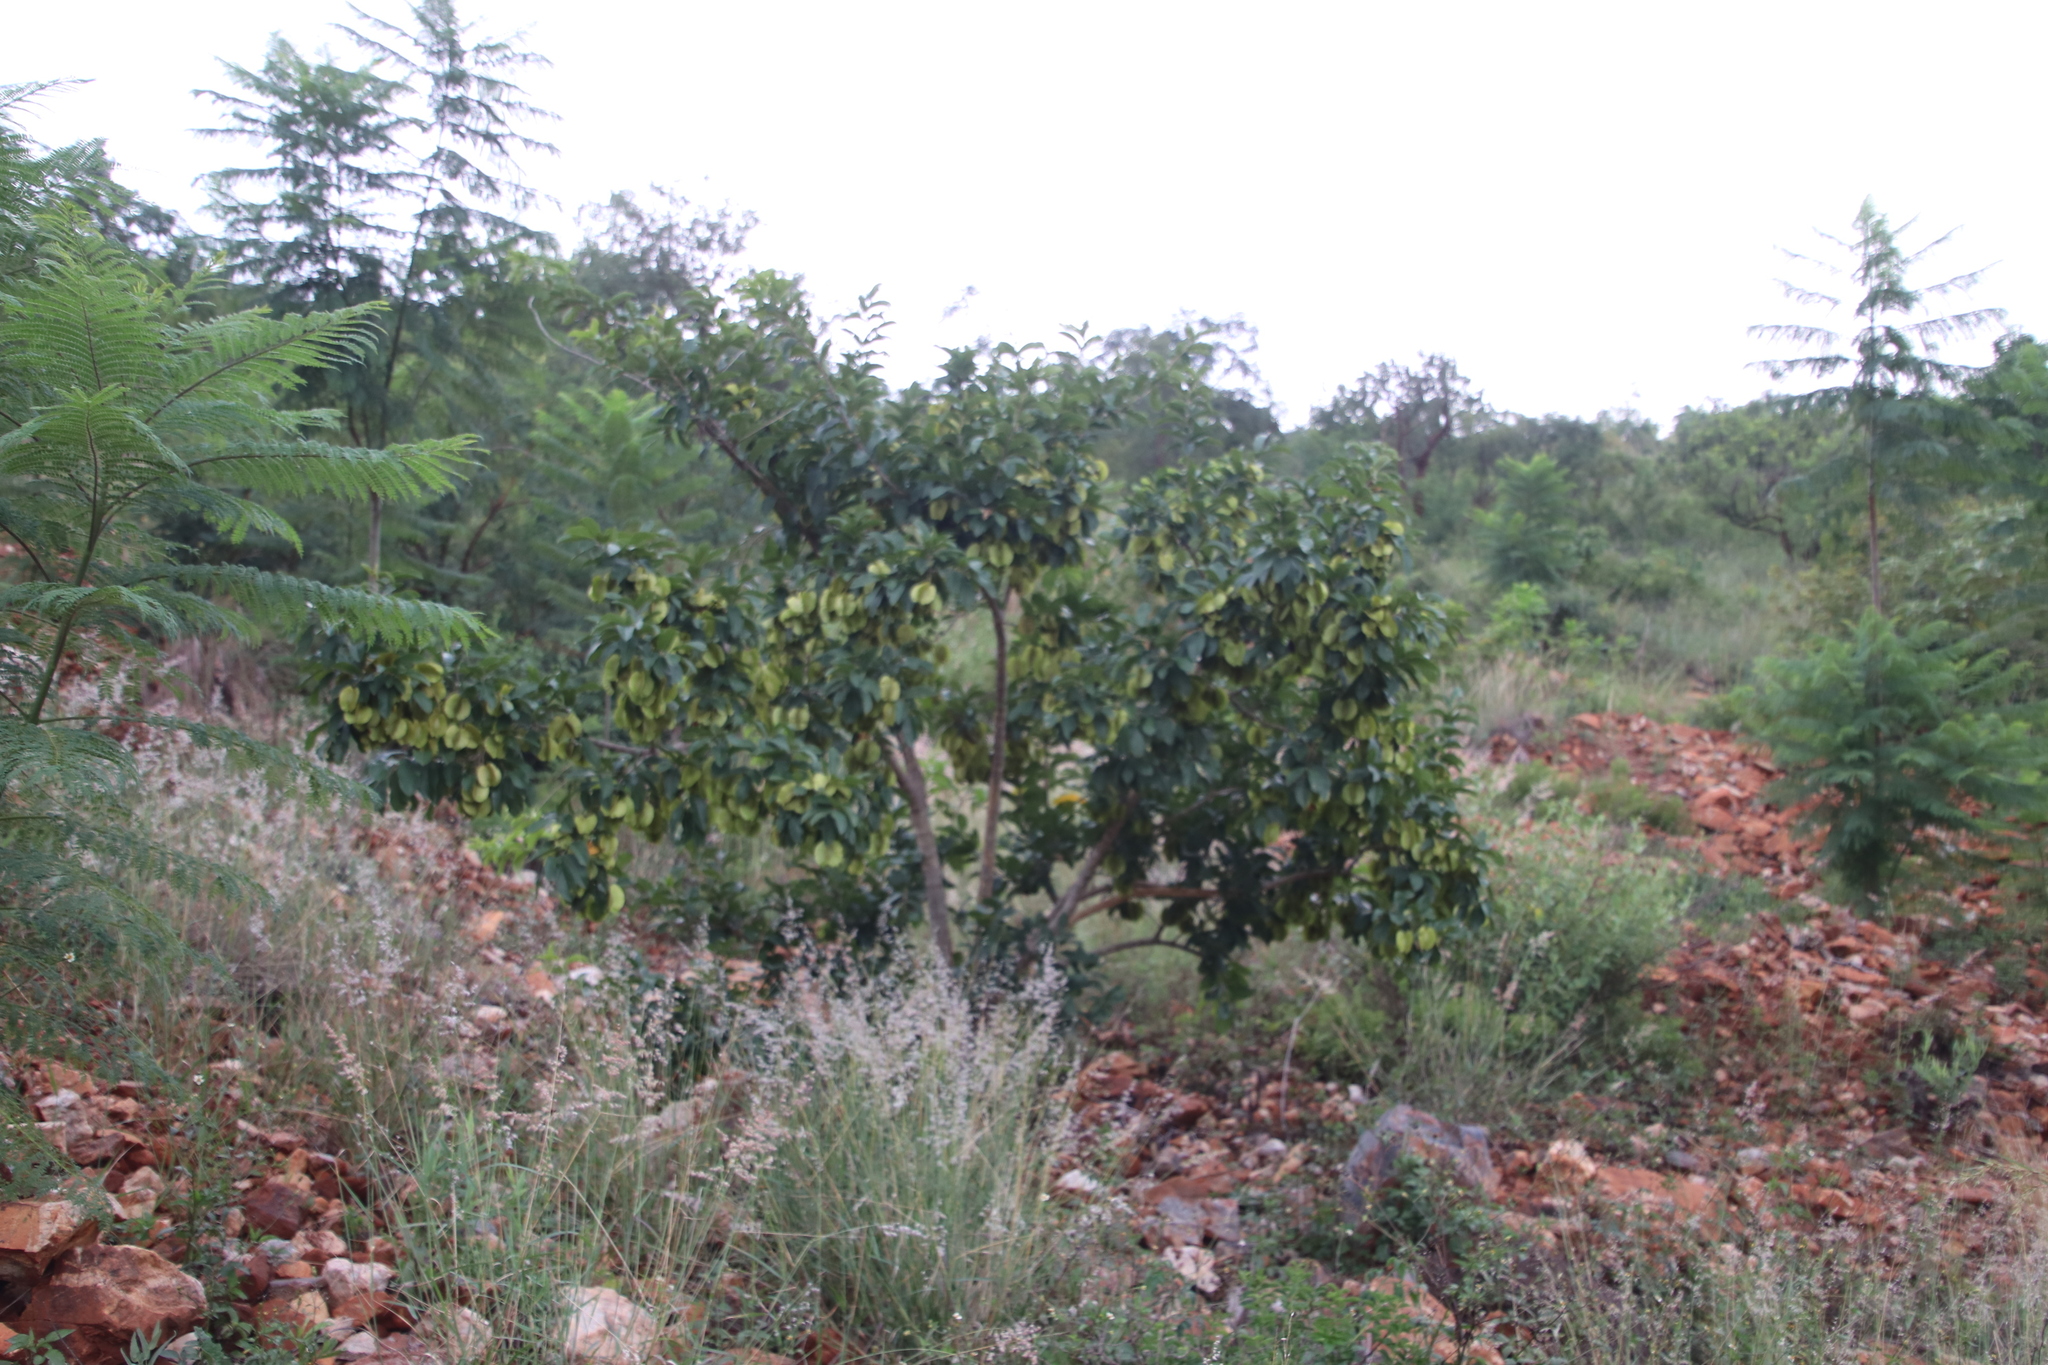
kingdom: Plantae
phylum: Tracheophyta
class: Magnoliopsida
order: Myrtales
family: Combretaceae
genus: Combretum
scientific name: Combretum zeyheri
